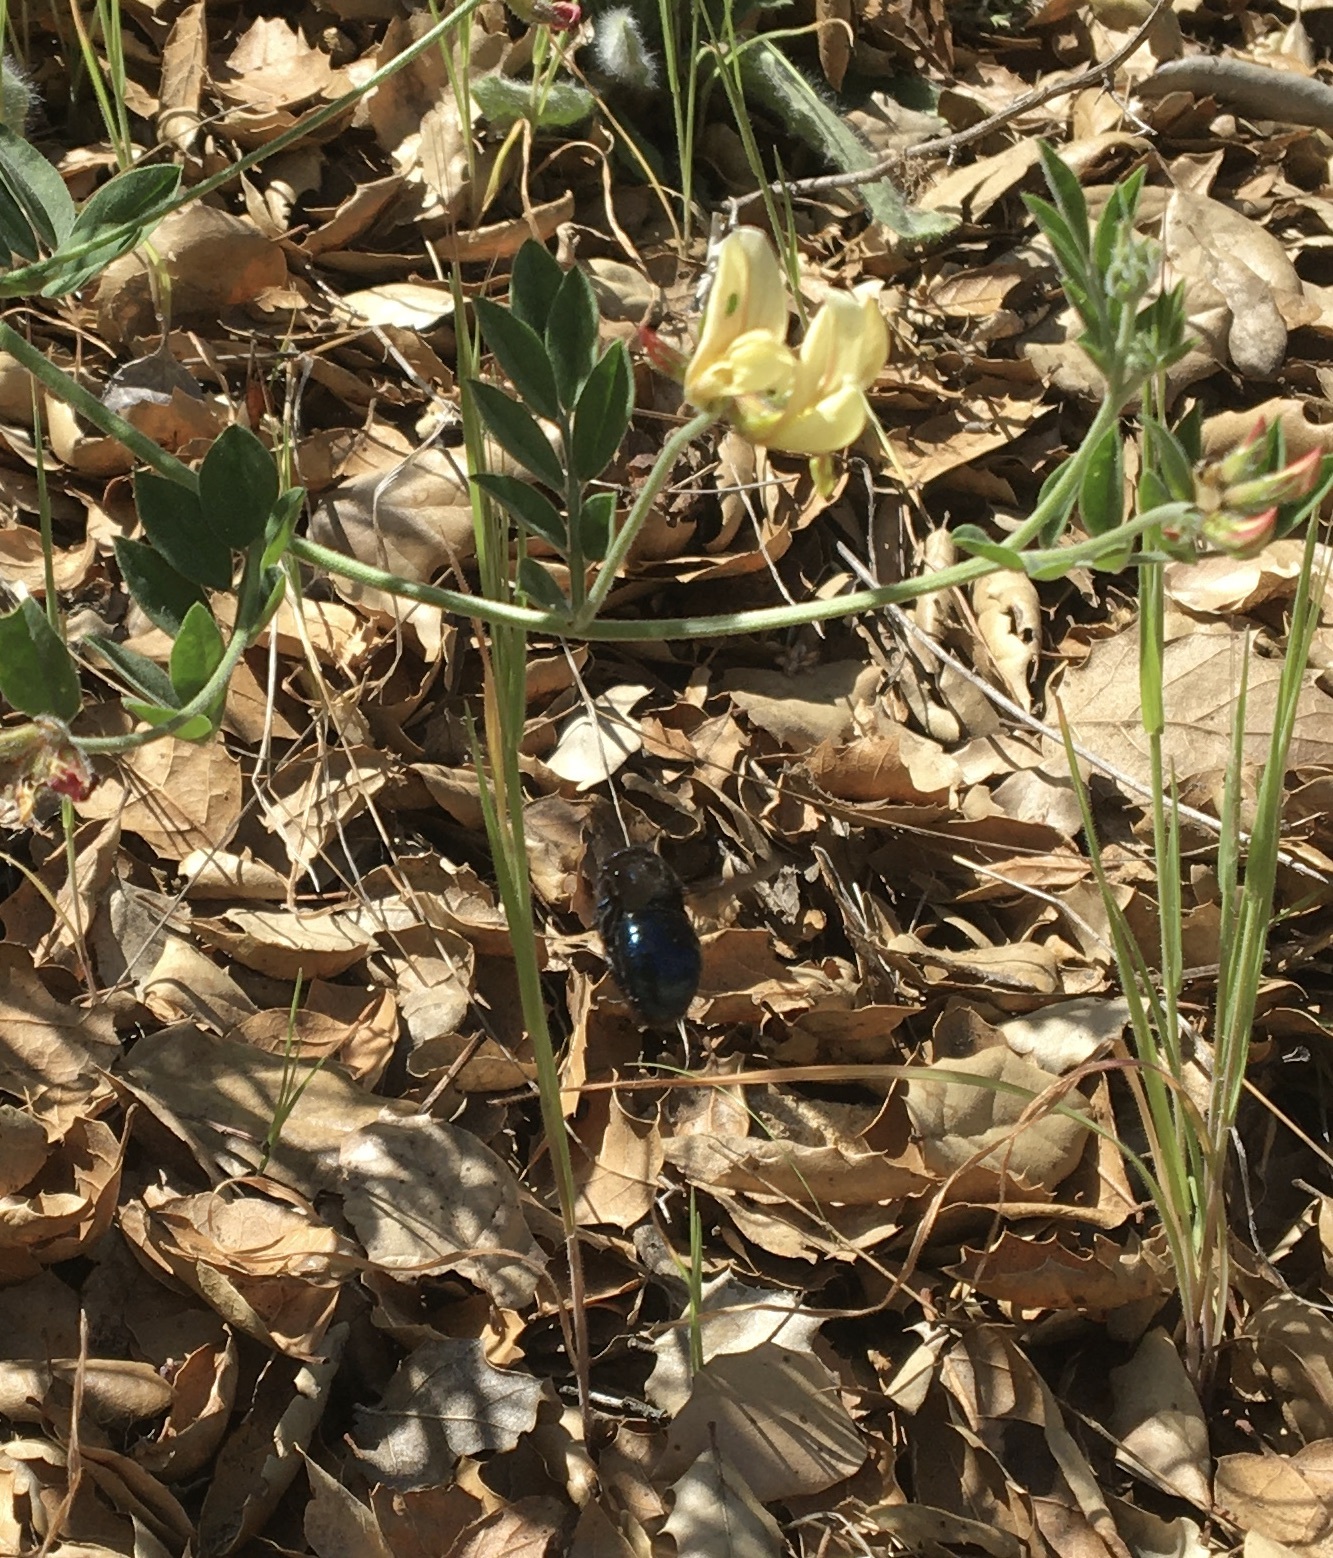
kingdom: Animalia
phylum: Arthropoda
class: Insecta
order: Hymenoptera
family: Apidae
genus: Xylocopa
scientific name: Xylocopa californica
